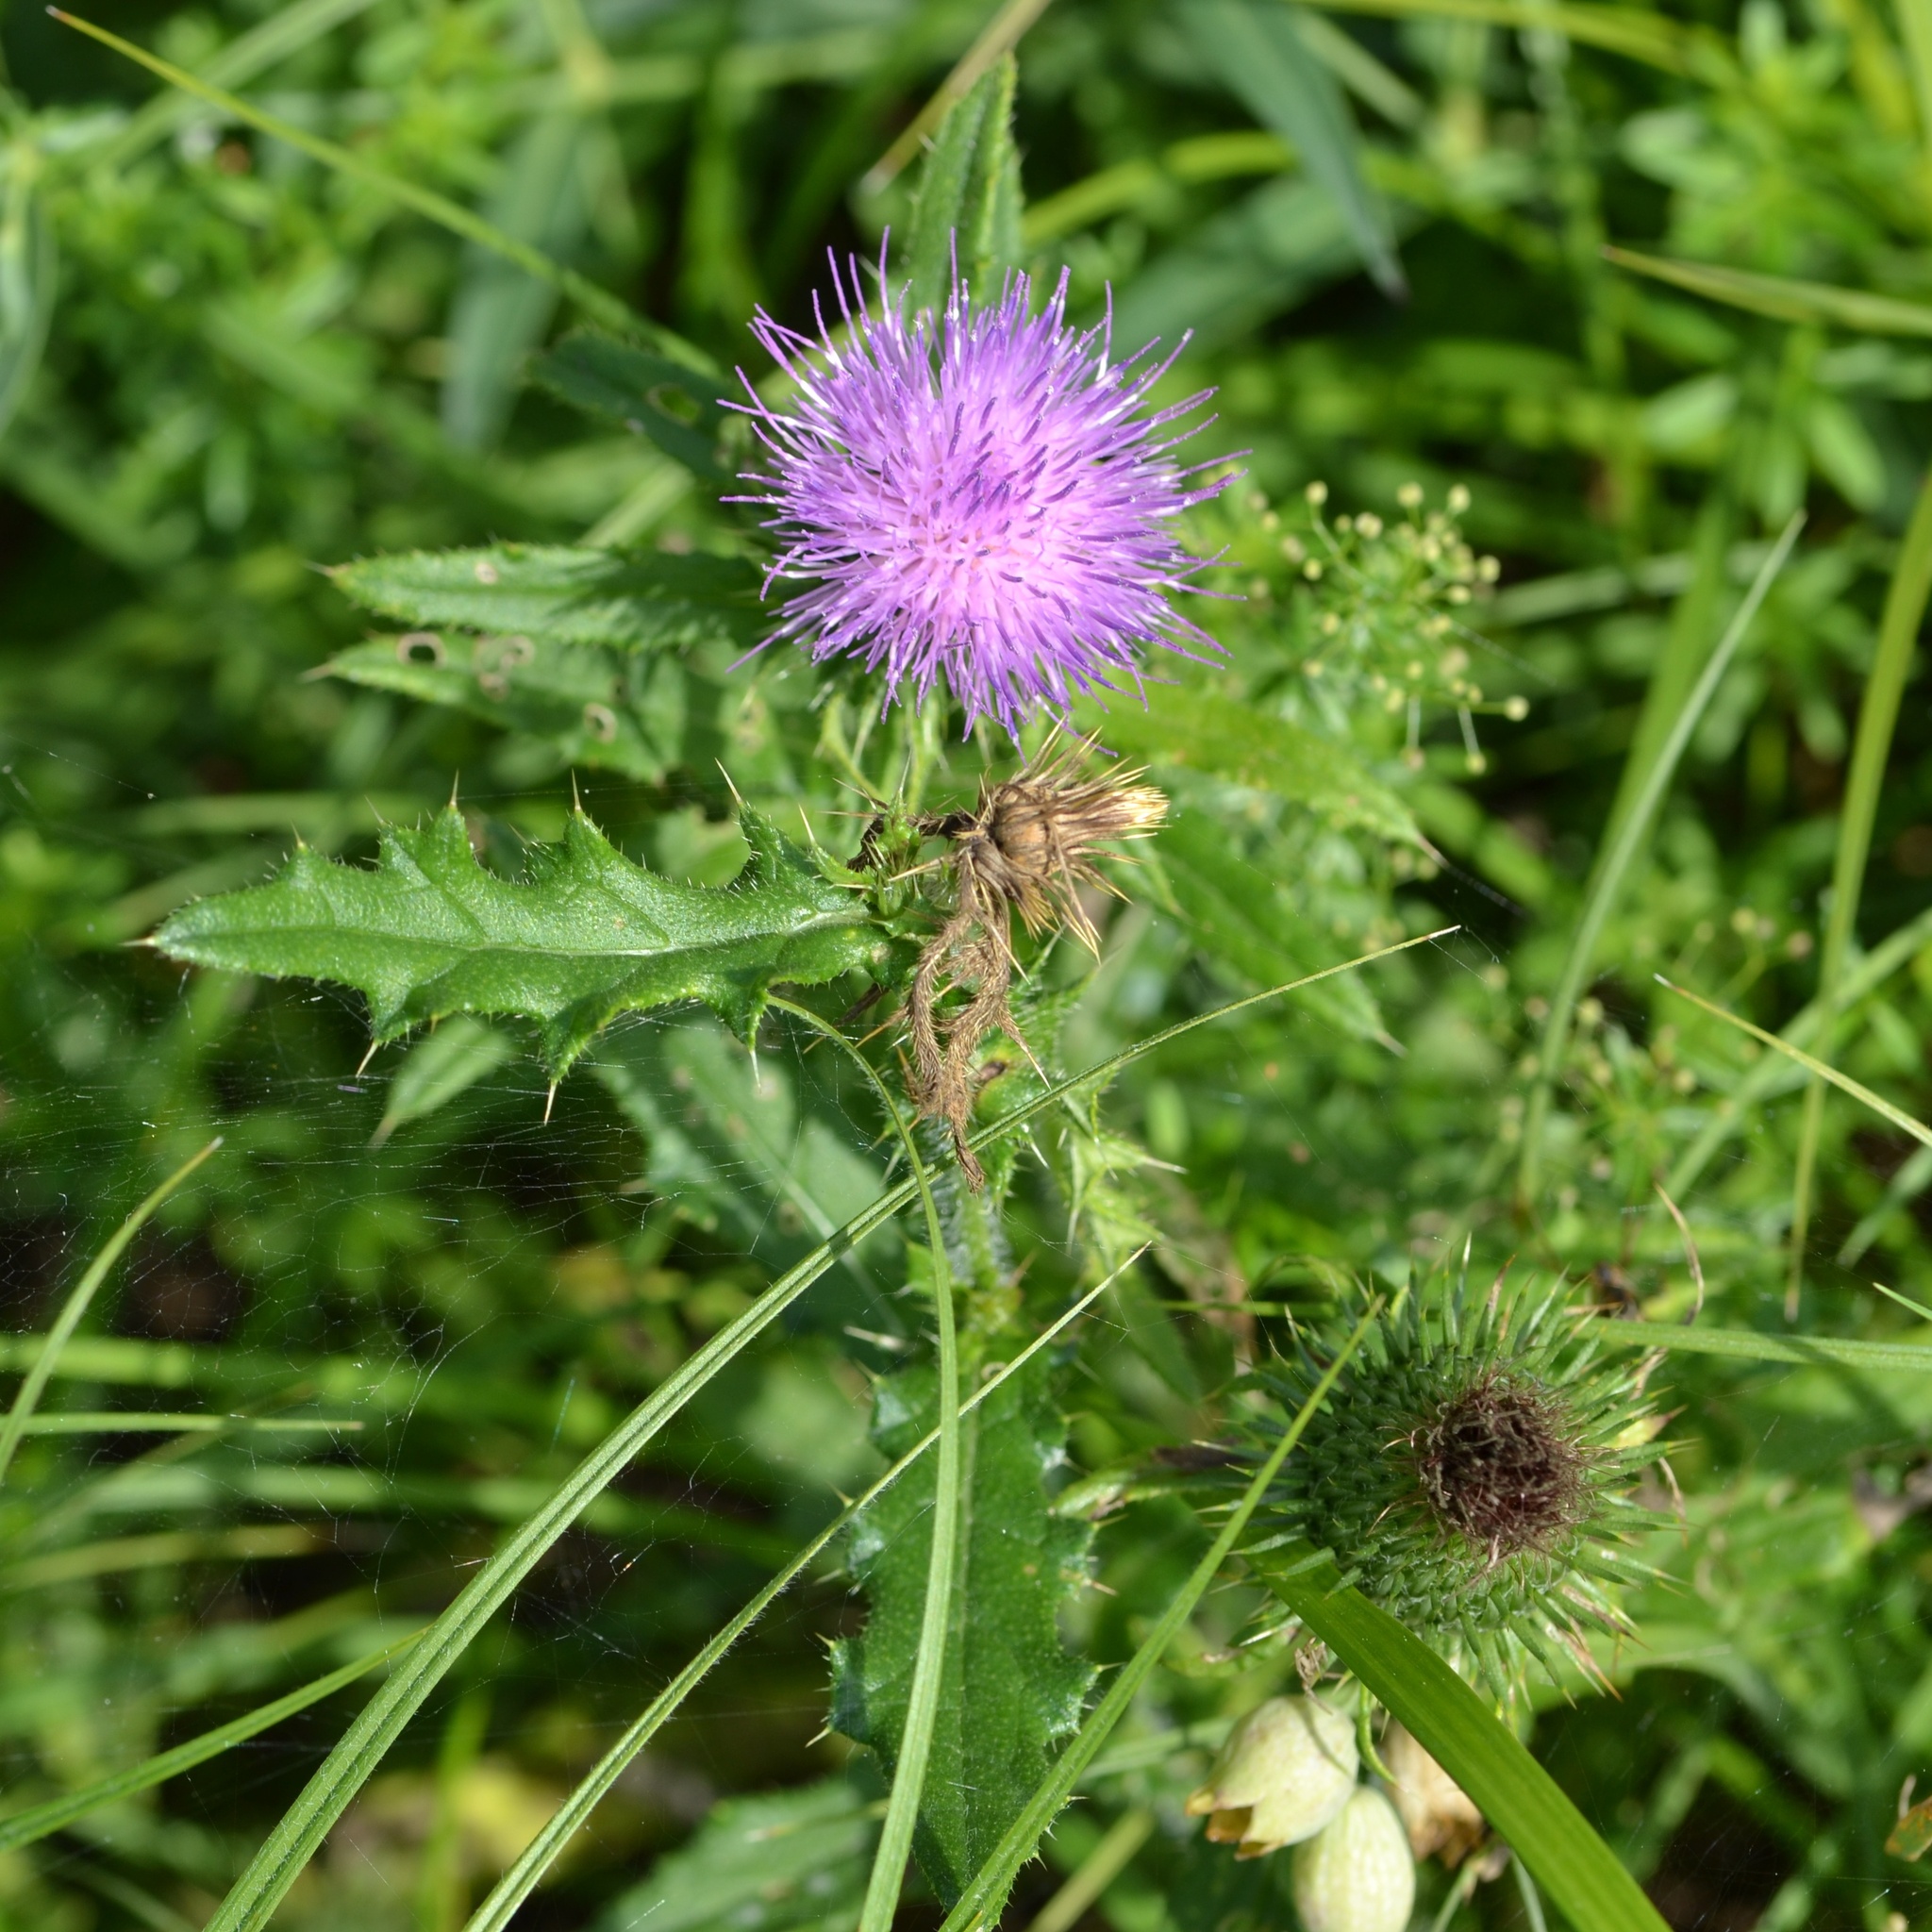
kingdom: Plantae
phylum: Tracheophyta
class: Magnoliopsida
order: Asterales
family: Asteraceae
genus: Cirsium
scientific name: Cirsium vulgare
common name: Bull thistle
